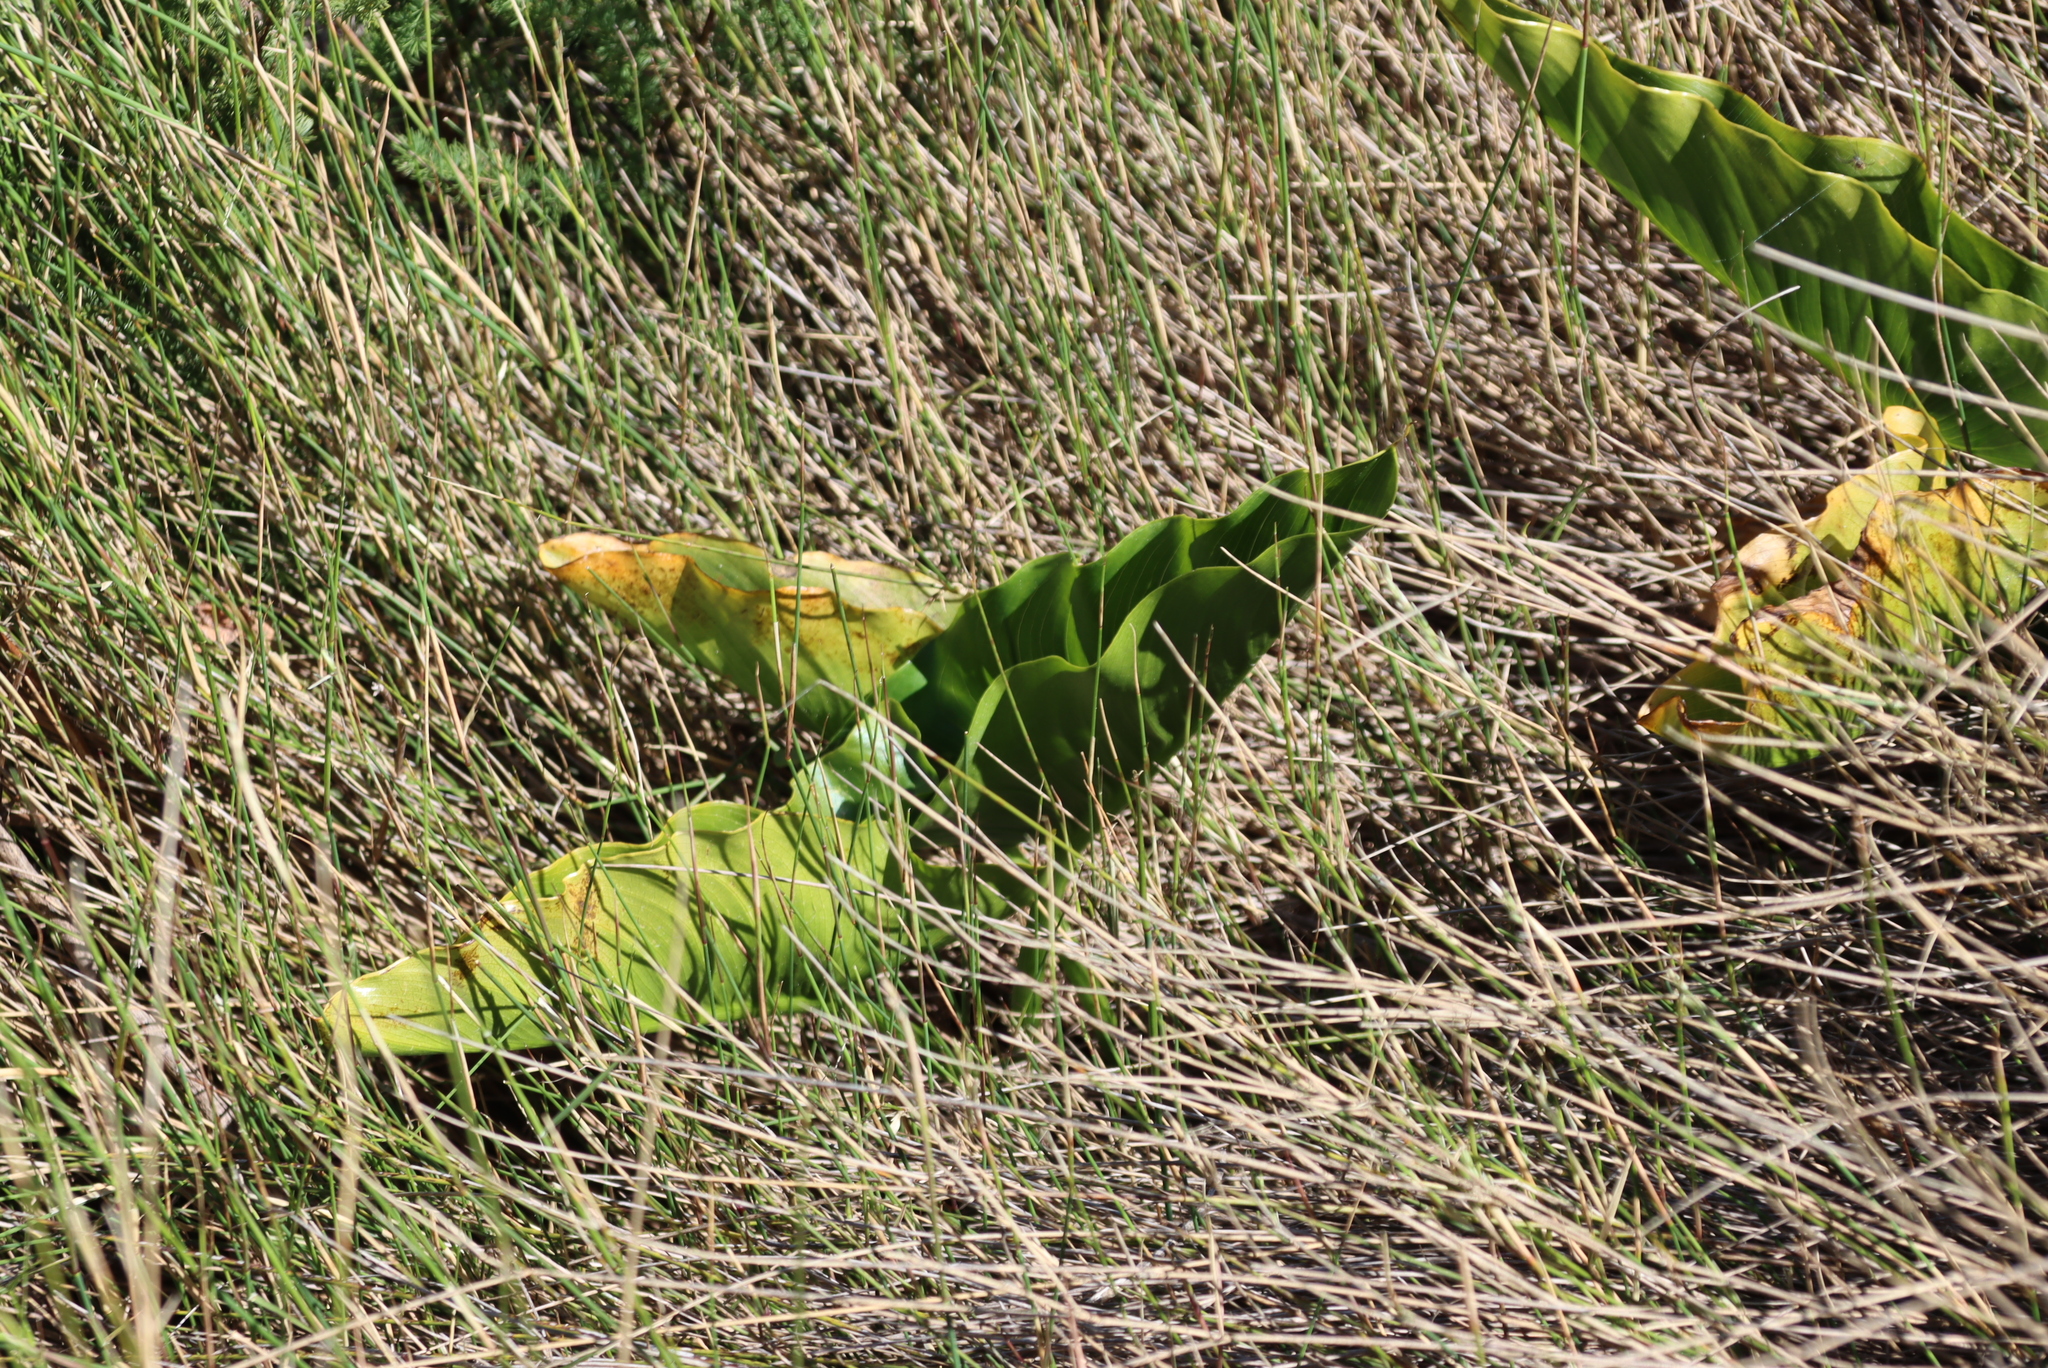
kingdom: Plantae
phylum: Tracheophyta
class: Liliopsida
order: Alismatales
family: Araceae
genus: Zantedeschia
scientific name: Zantedeschia aethiopica
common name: Altar-lily
